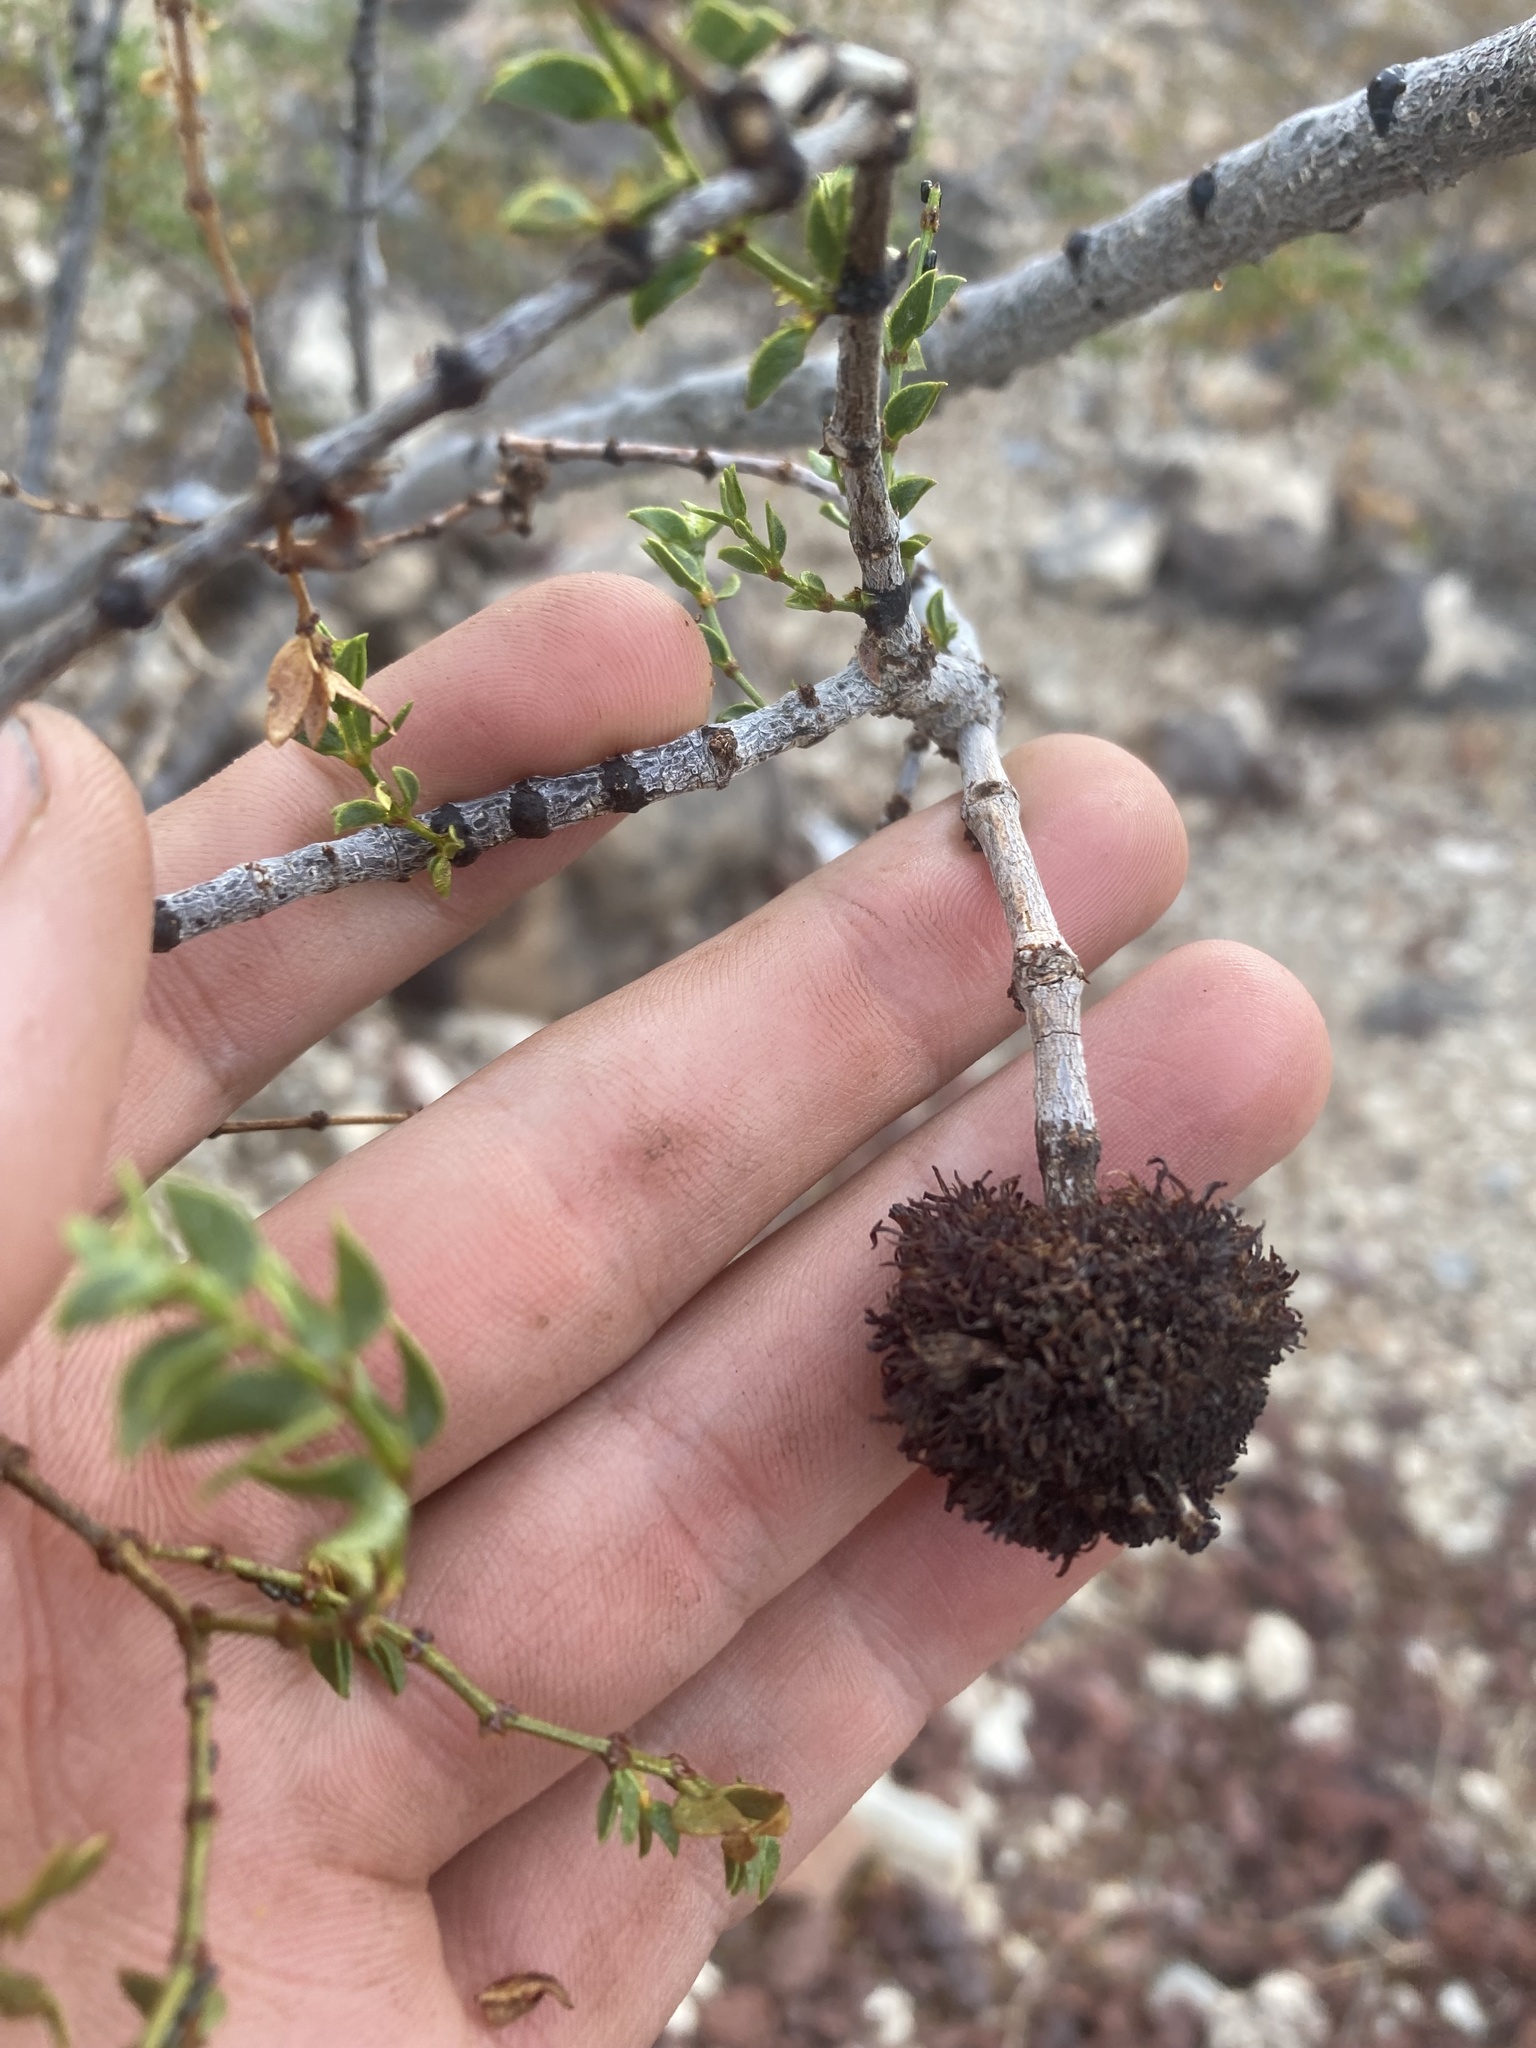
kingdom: Animalia
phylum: Arthropoda
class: Insecta
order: Diptera
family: Cecidomyiidae
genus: Asphondylia
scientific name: Asphondylia auripila
